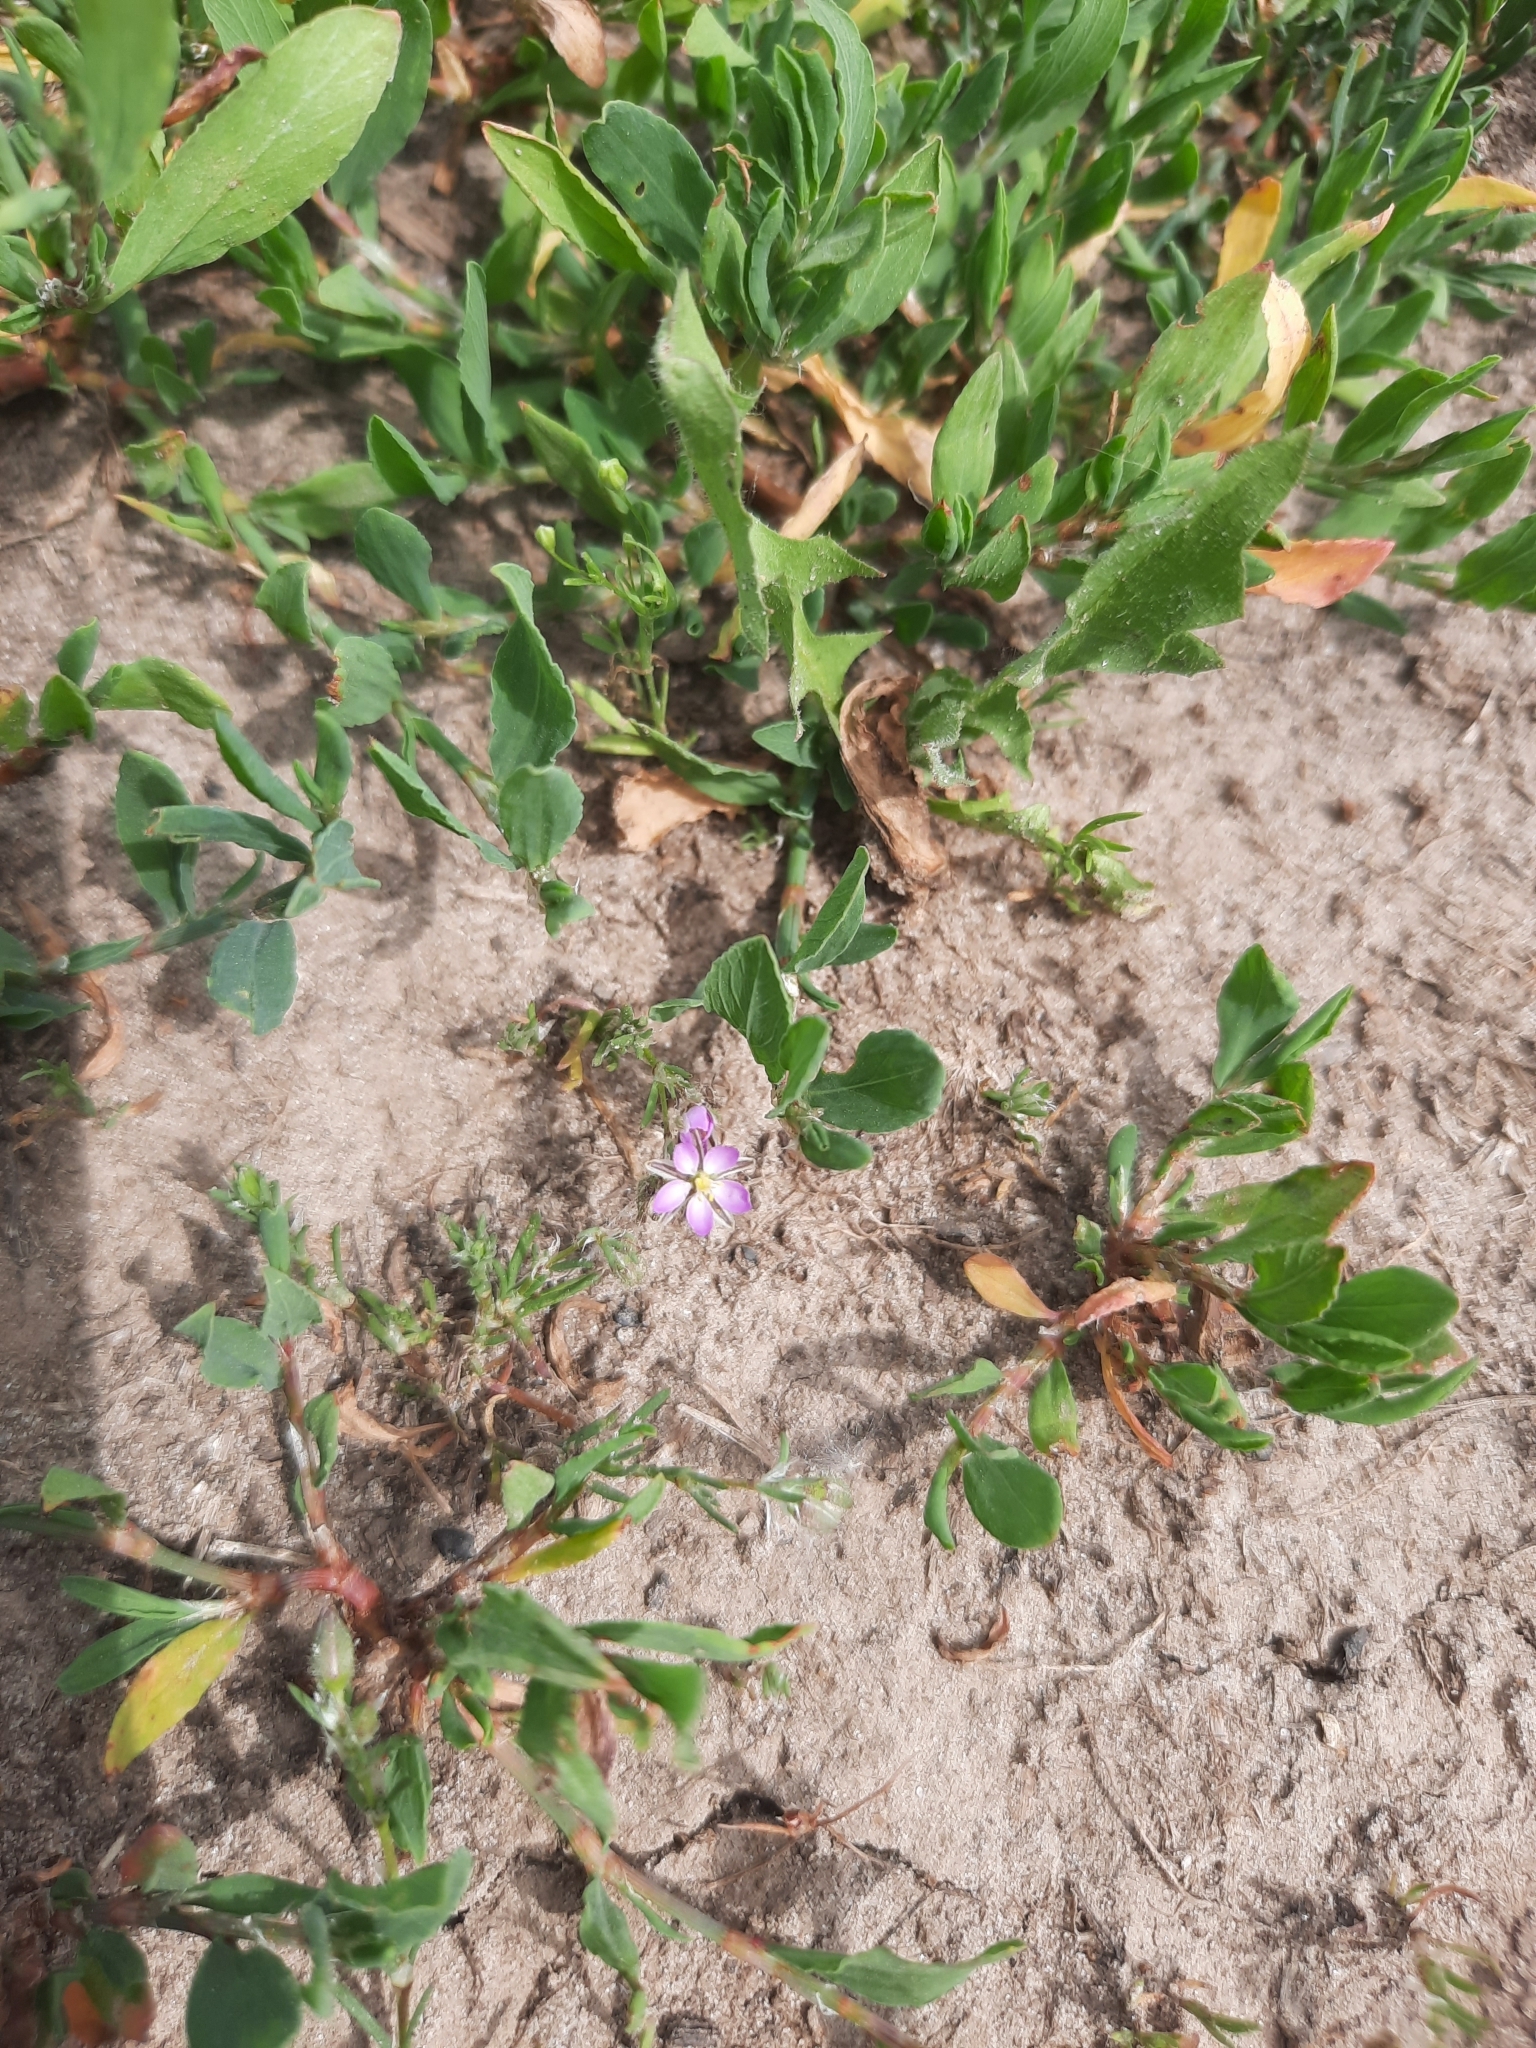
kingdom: Plantae
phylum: Tracheophyta
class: Magnoliopsida
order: Caryophyllales
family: Caryophyllaceae
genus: Spergularia
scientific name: Spergularia rubra
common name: Red sand-spurrey
